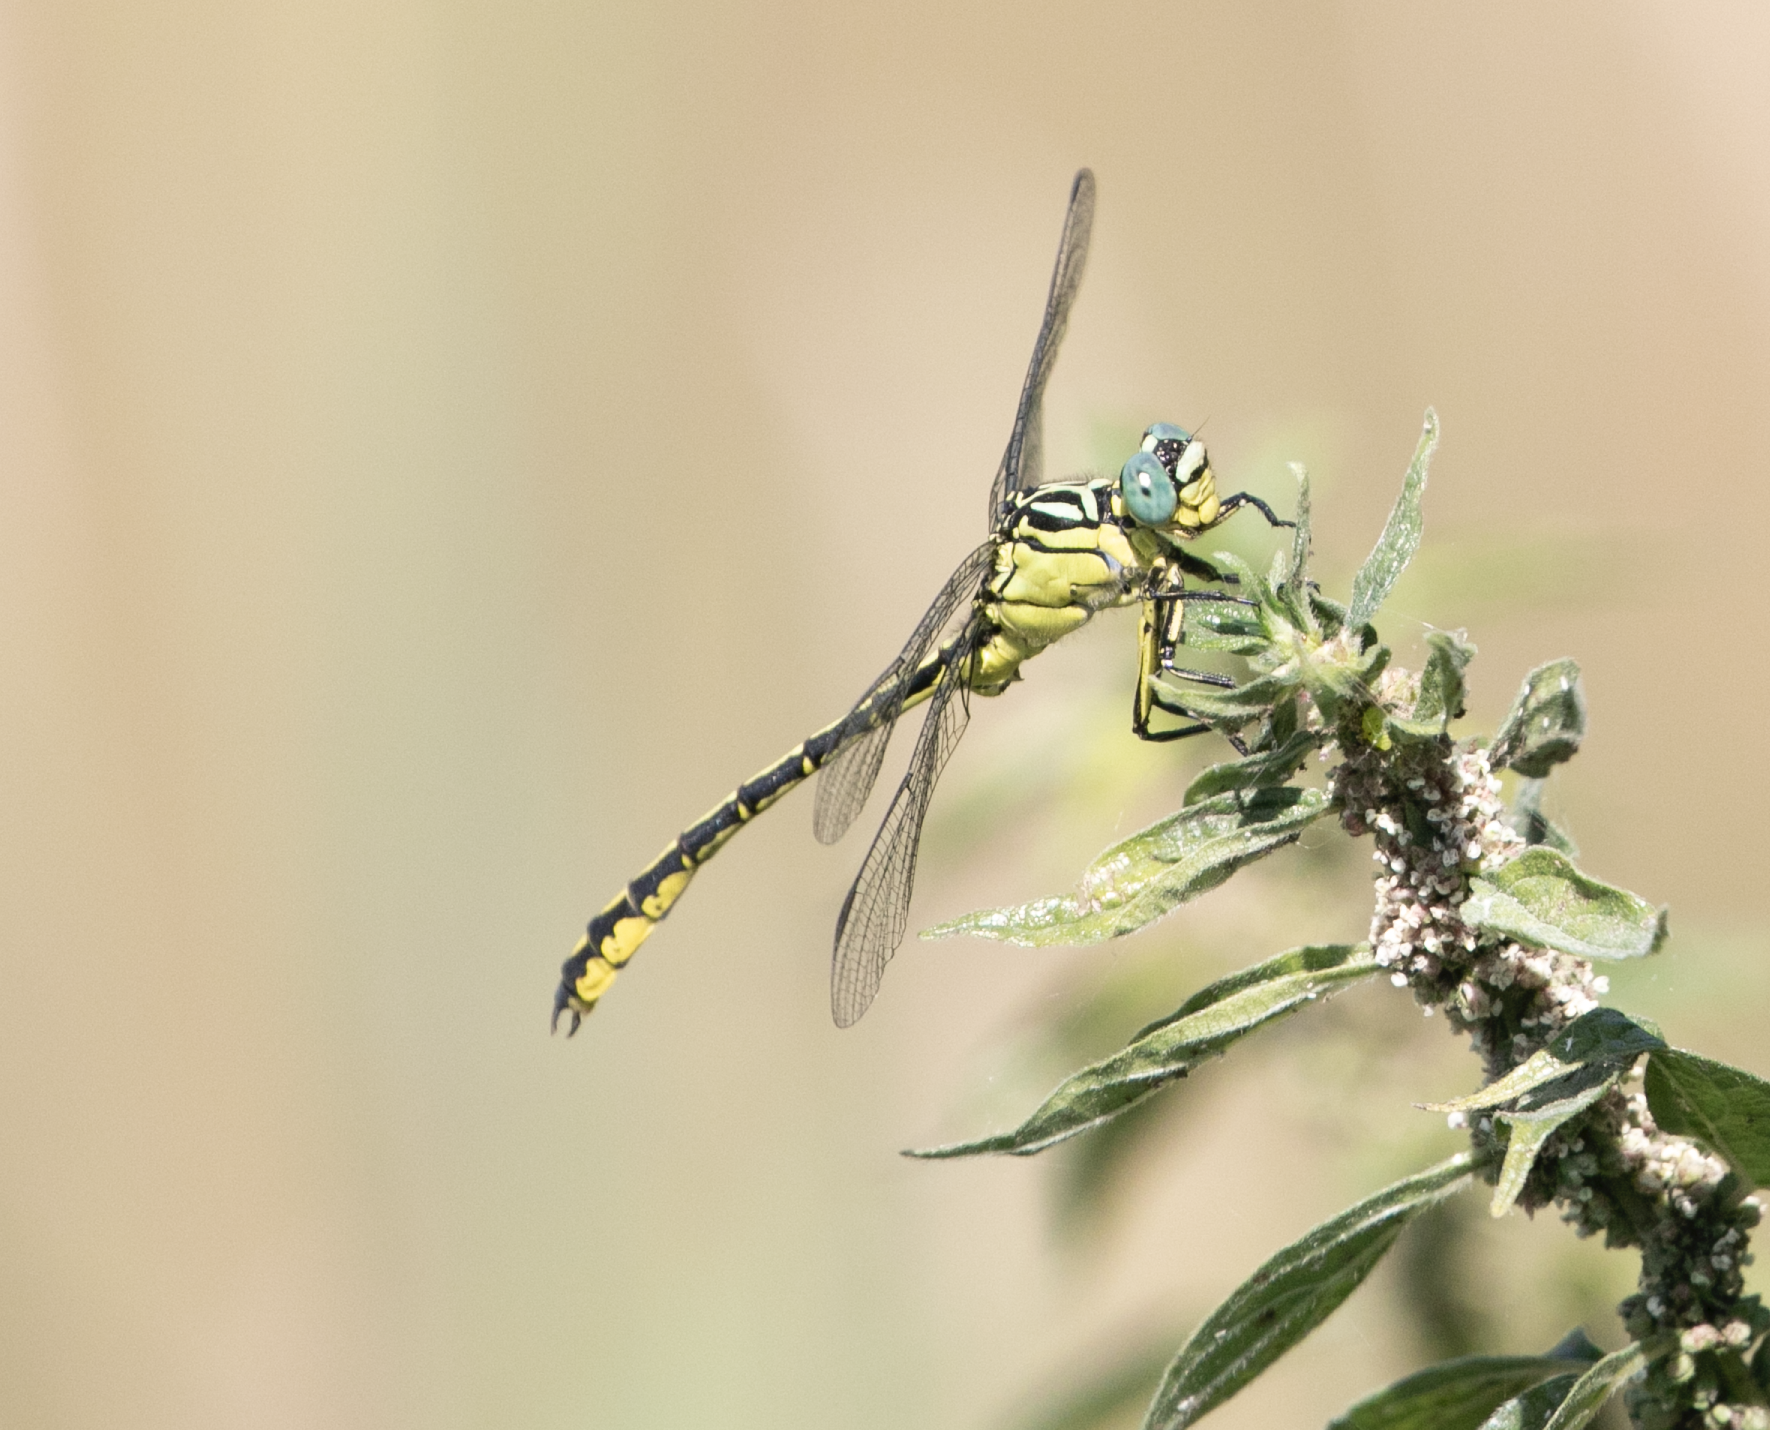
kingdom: Animalia
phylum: Arthropoda
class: Insecta
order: Odonata
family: Gomphidae
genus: Stylurus
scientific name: Stylurus flavipes
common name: River clubtail
